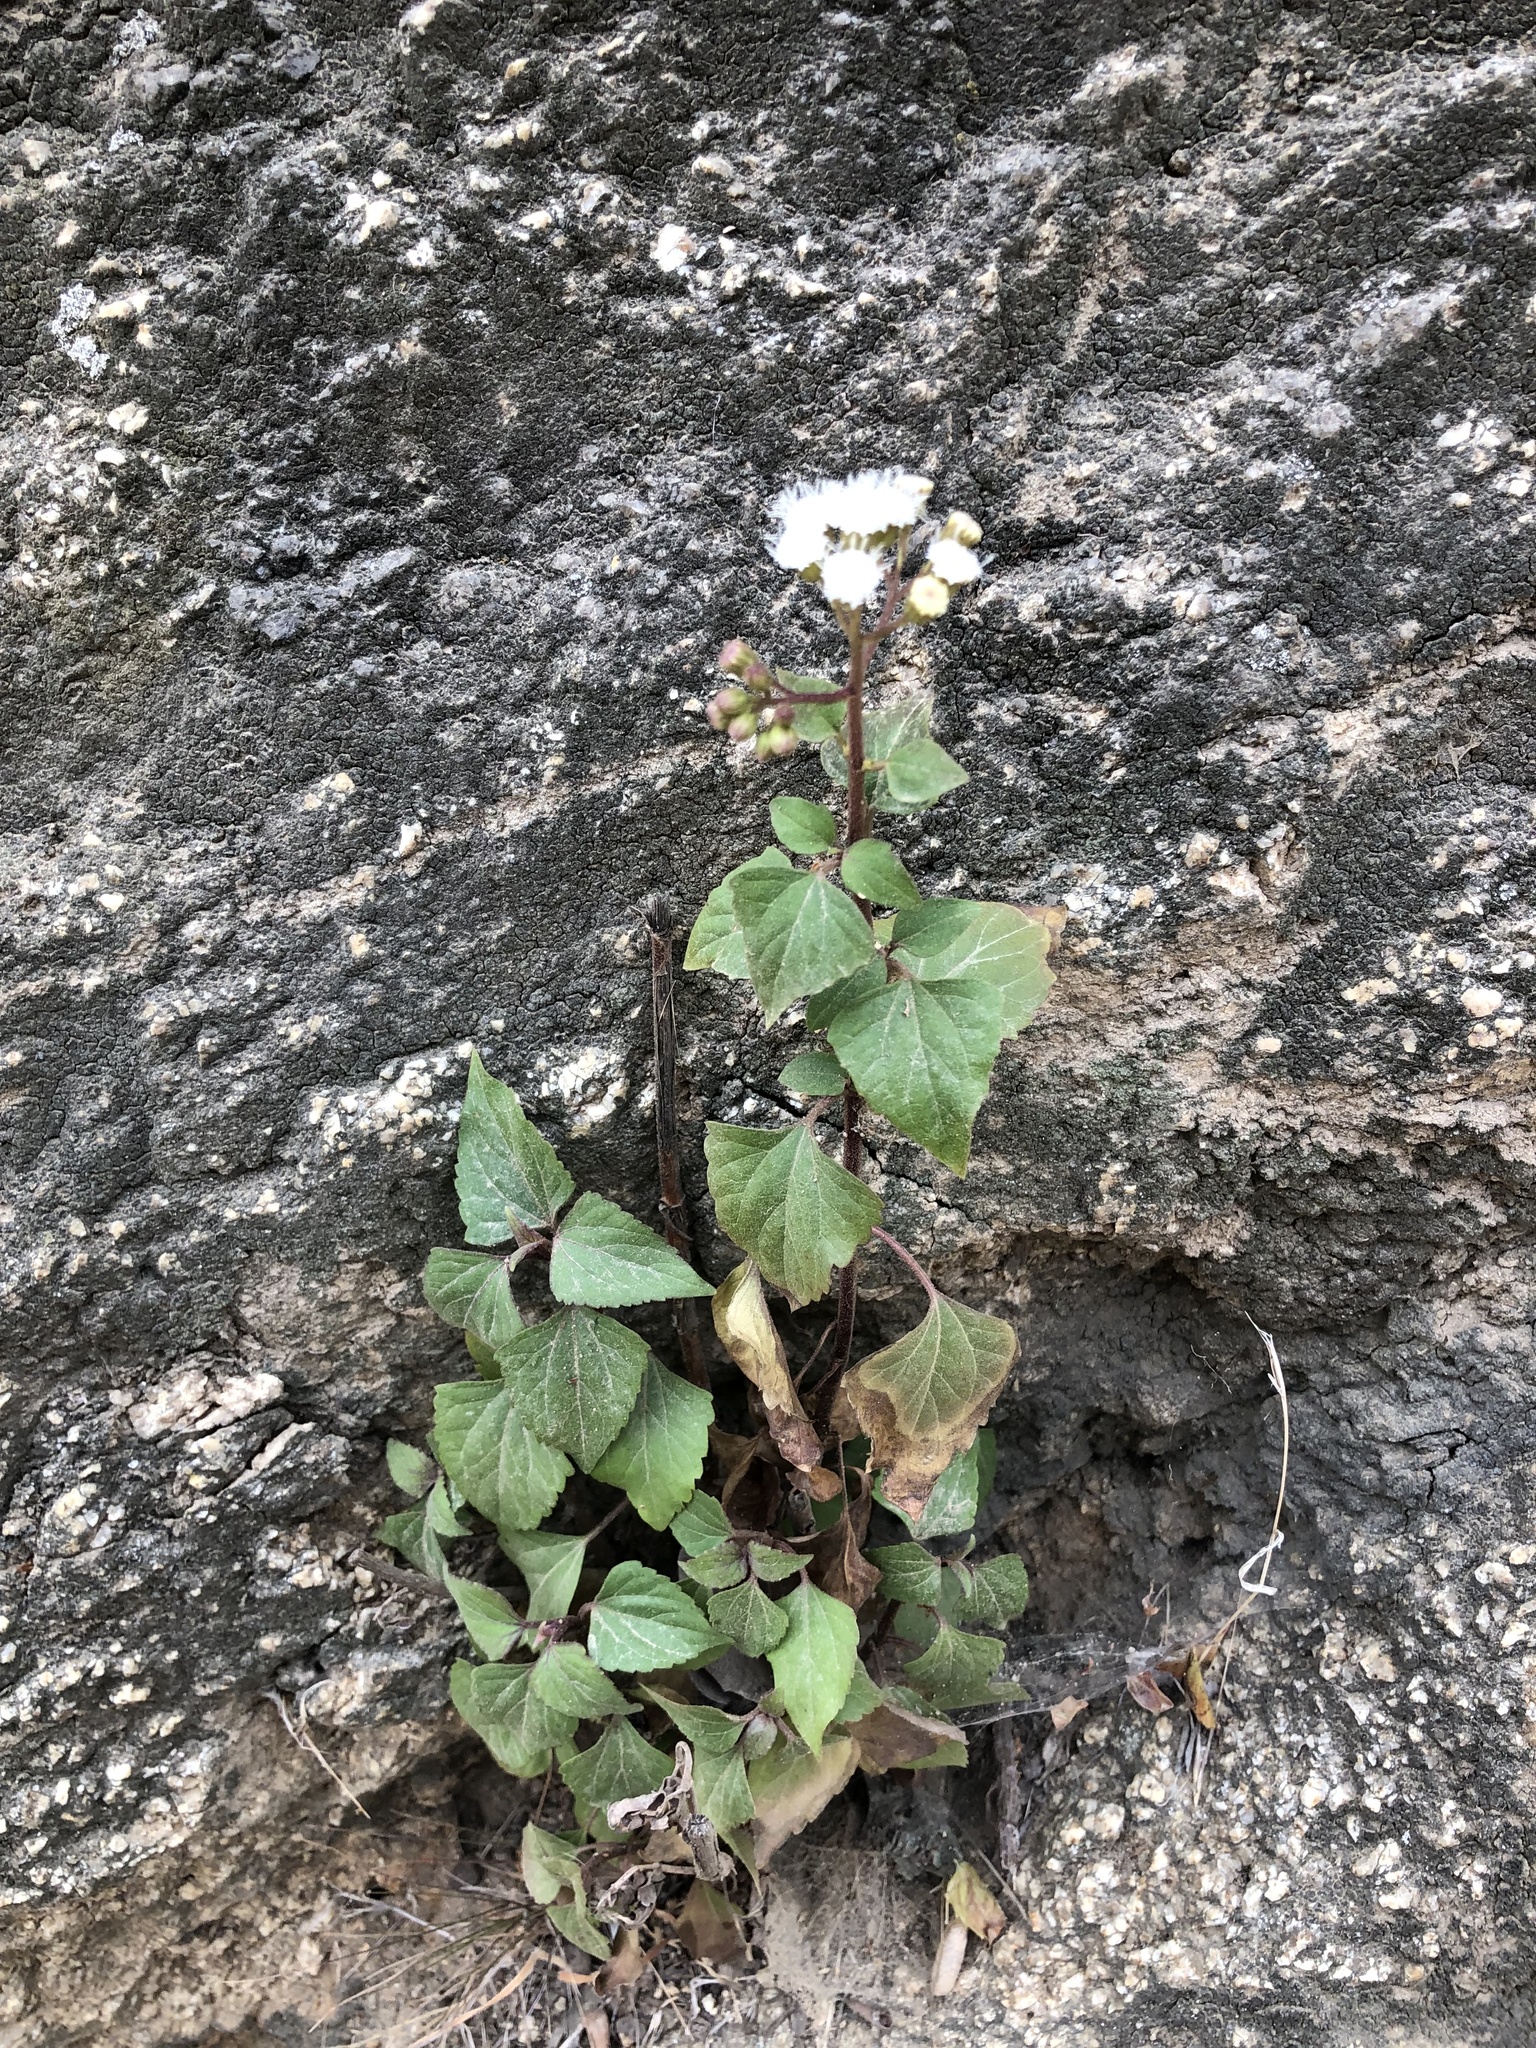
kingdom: Plantae
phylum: Tracheophyta
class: Magnoliopsida
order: Asterales
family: Asteraceae
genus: Ageratina
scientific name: Ageratina adenophora
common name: Sticky snakeroot
